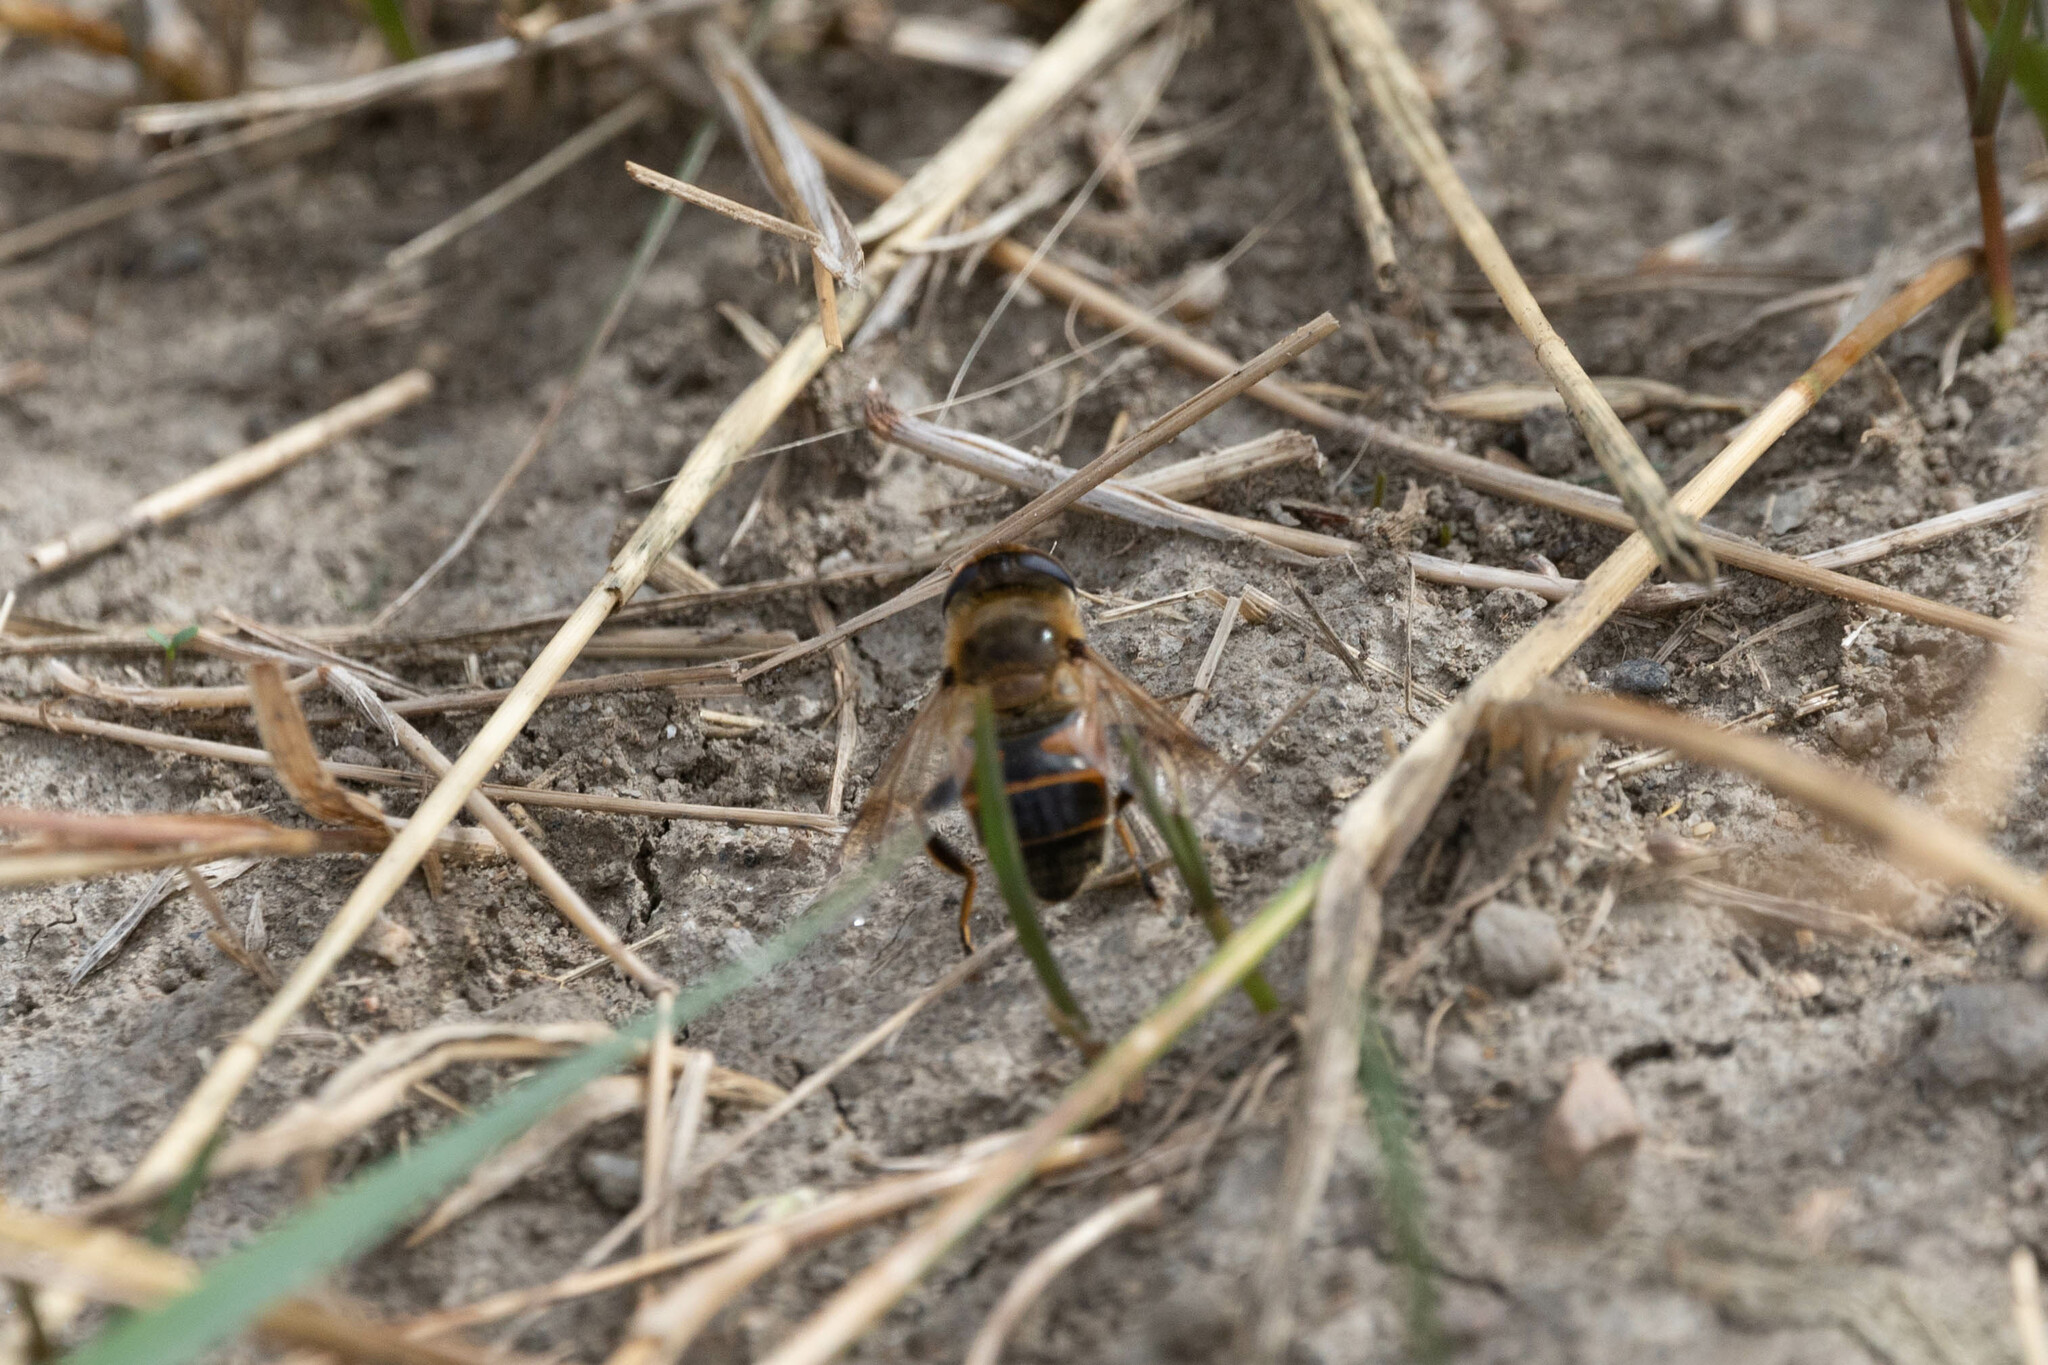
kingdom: Animalia
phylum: Arthropoda
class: Insecta
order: Diptera
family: Syrphidae
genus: Eristalis
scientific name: Eristalis tenax
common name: Drone fly
